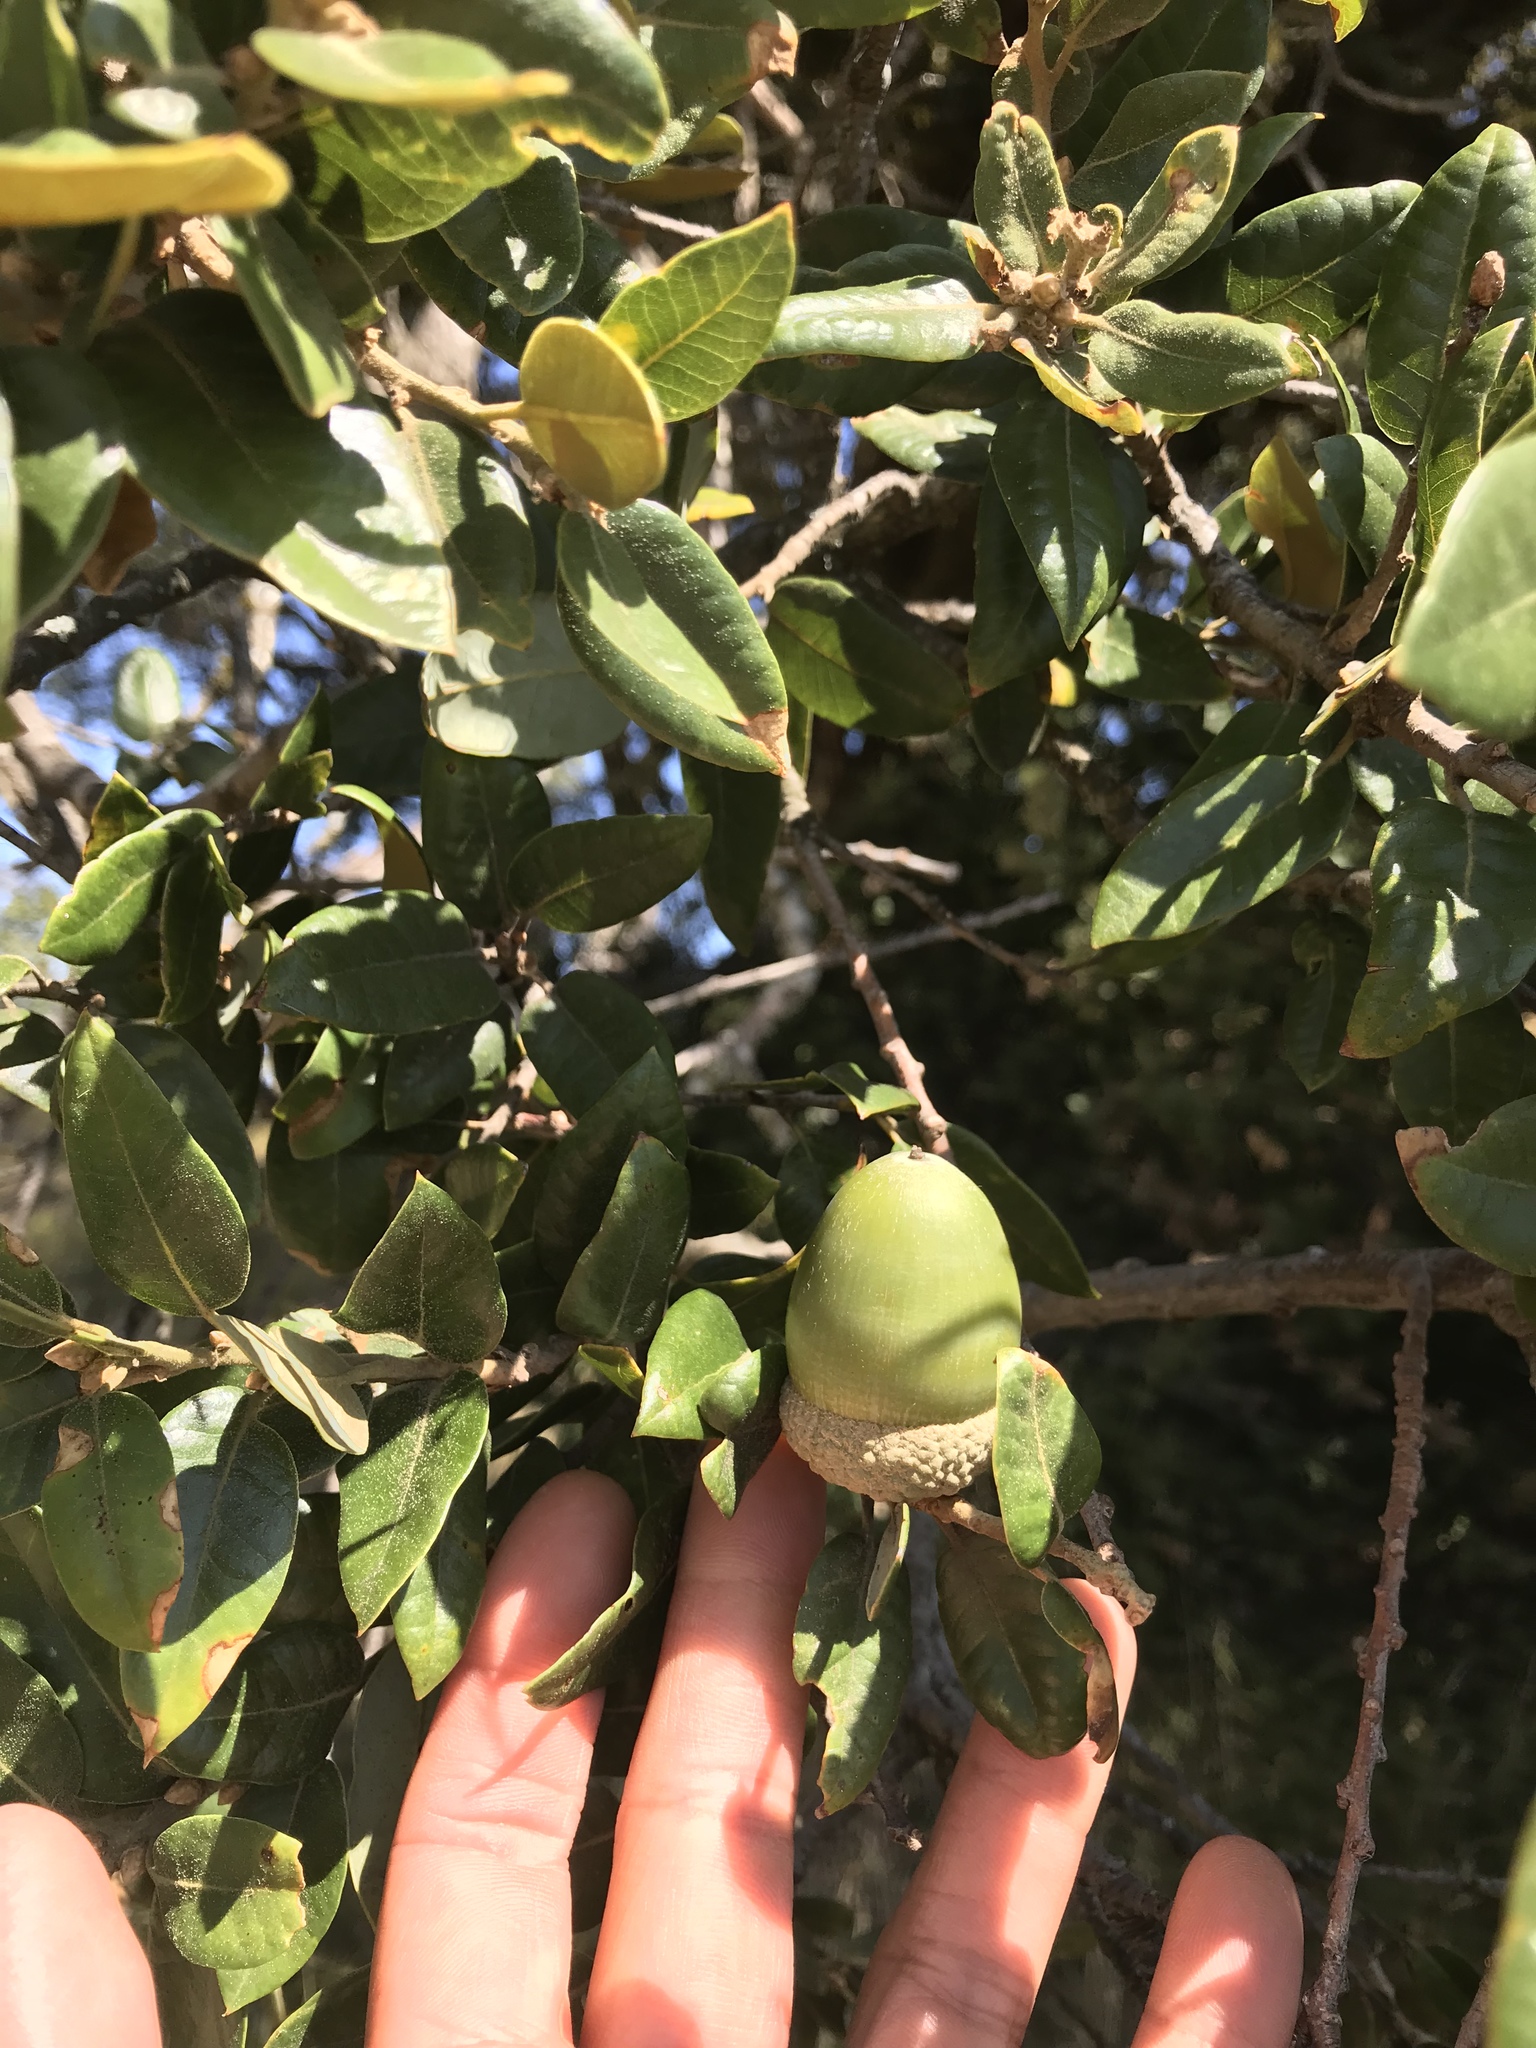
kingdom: Plantae
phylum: Tracheophyta
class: Magnoliopsida
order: Fagales
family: Fagaceae
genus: Quercus
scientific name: Quercus chrysolepis
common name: Canyon live oak
